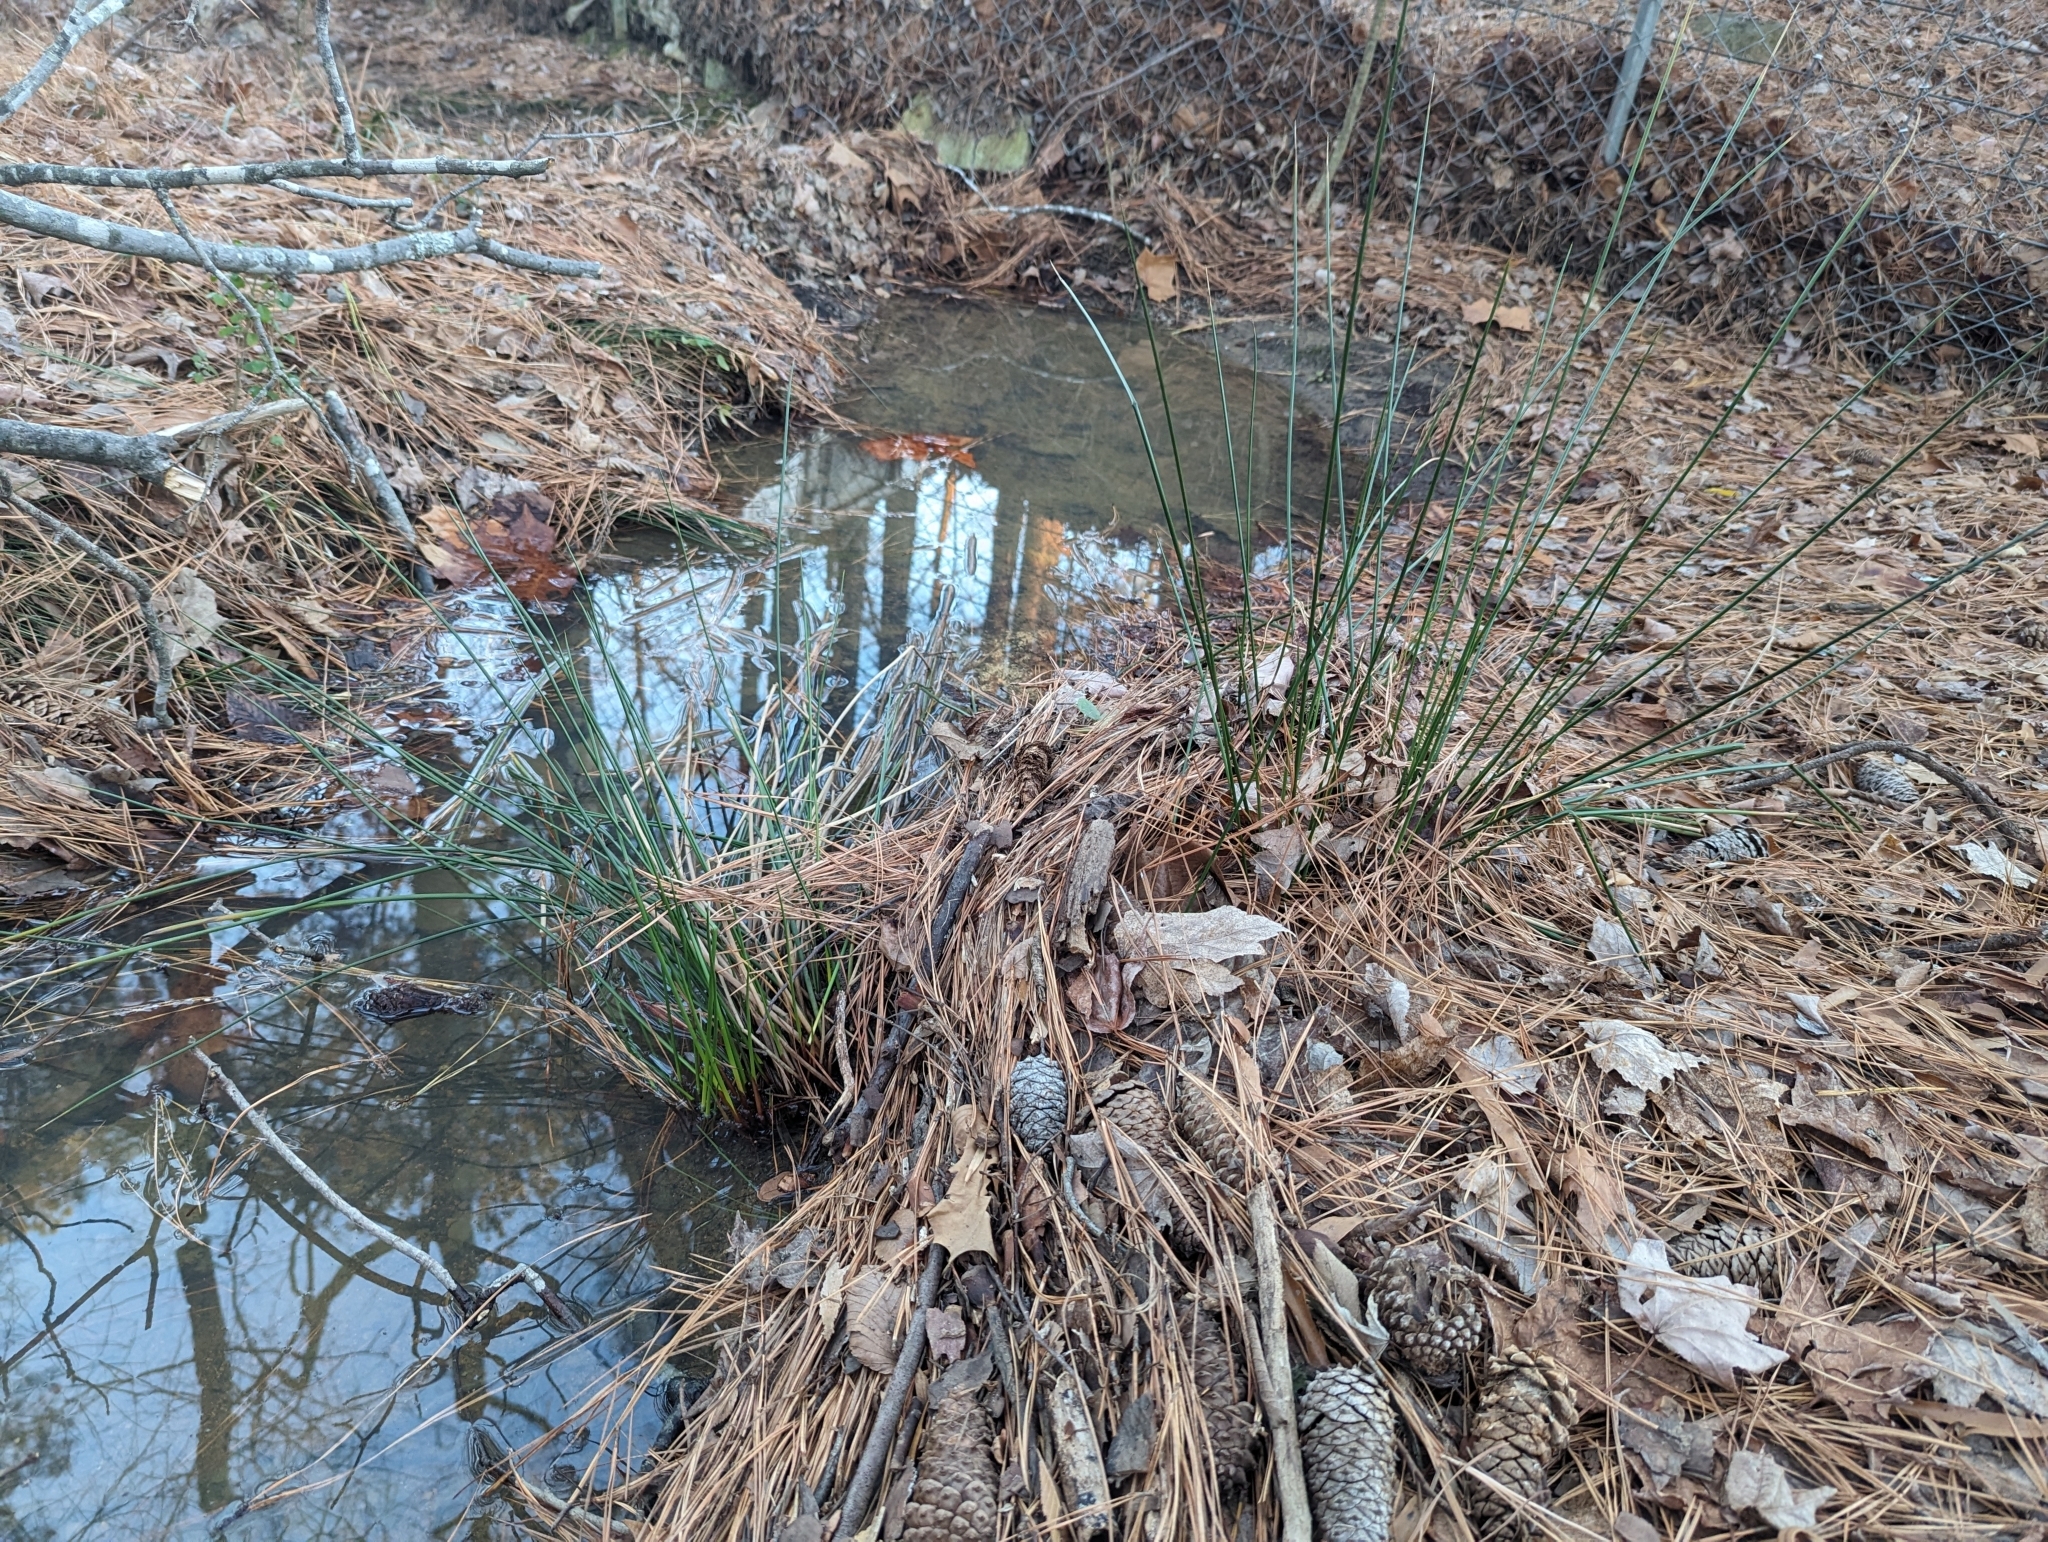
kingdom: Plantae
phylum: Tracheophyta
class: Liliopsida
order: Poales
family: Juncaceae
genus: Juncus
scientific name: Juncus effusus
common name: Soft rush
